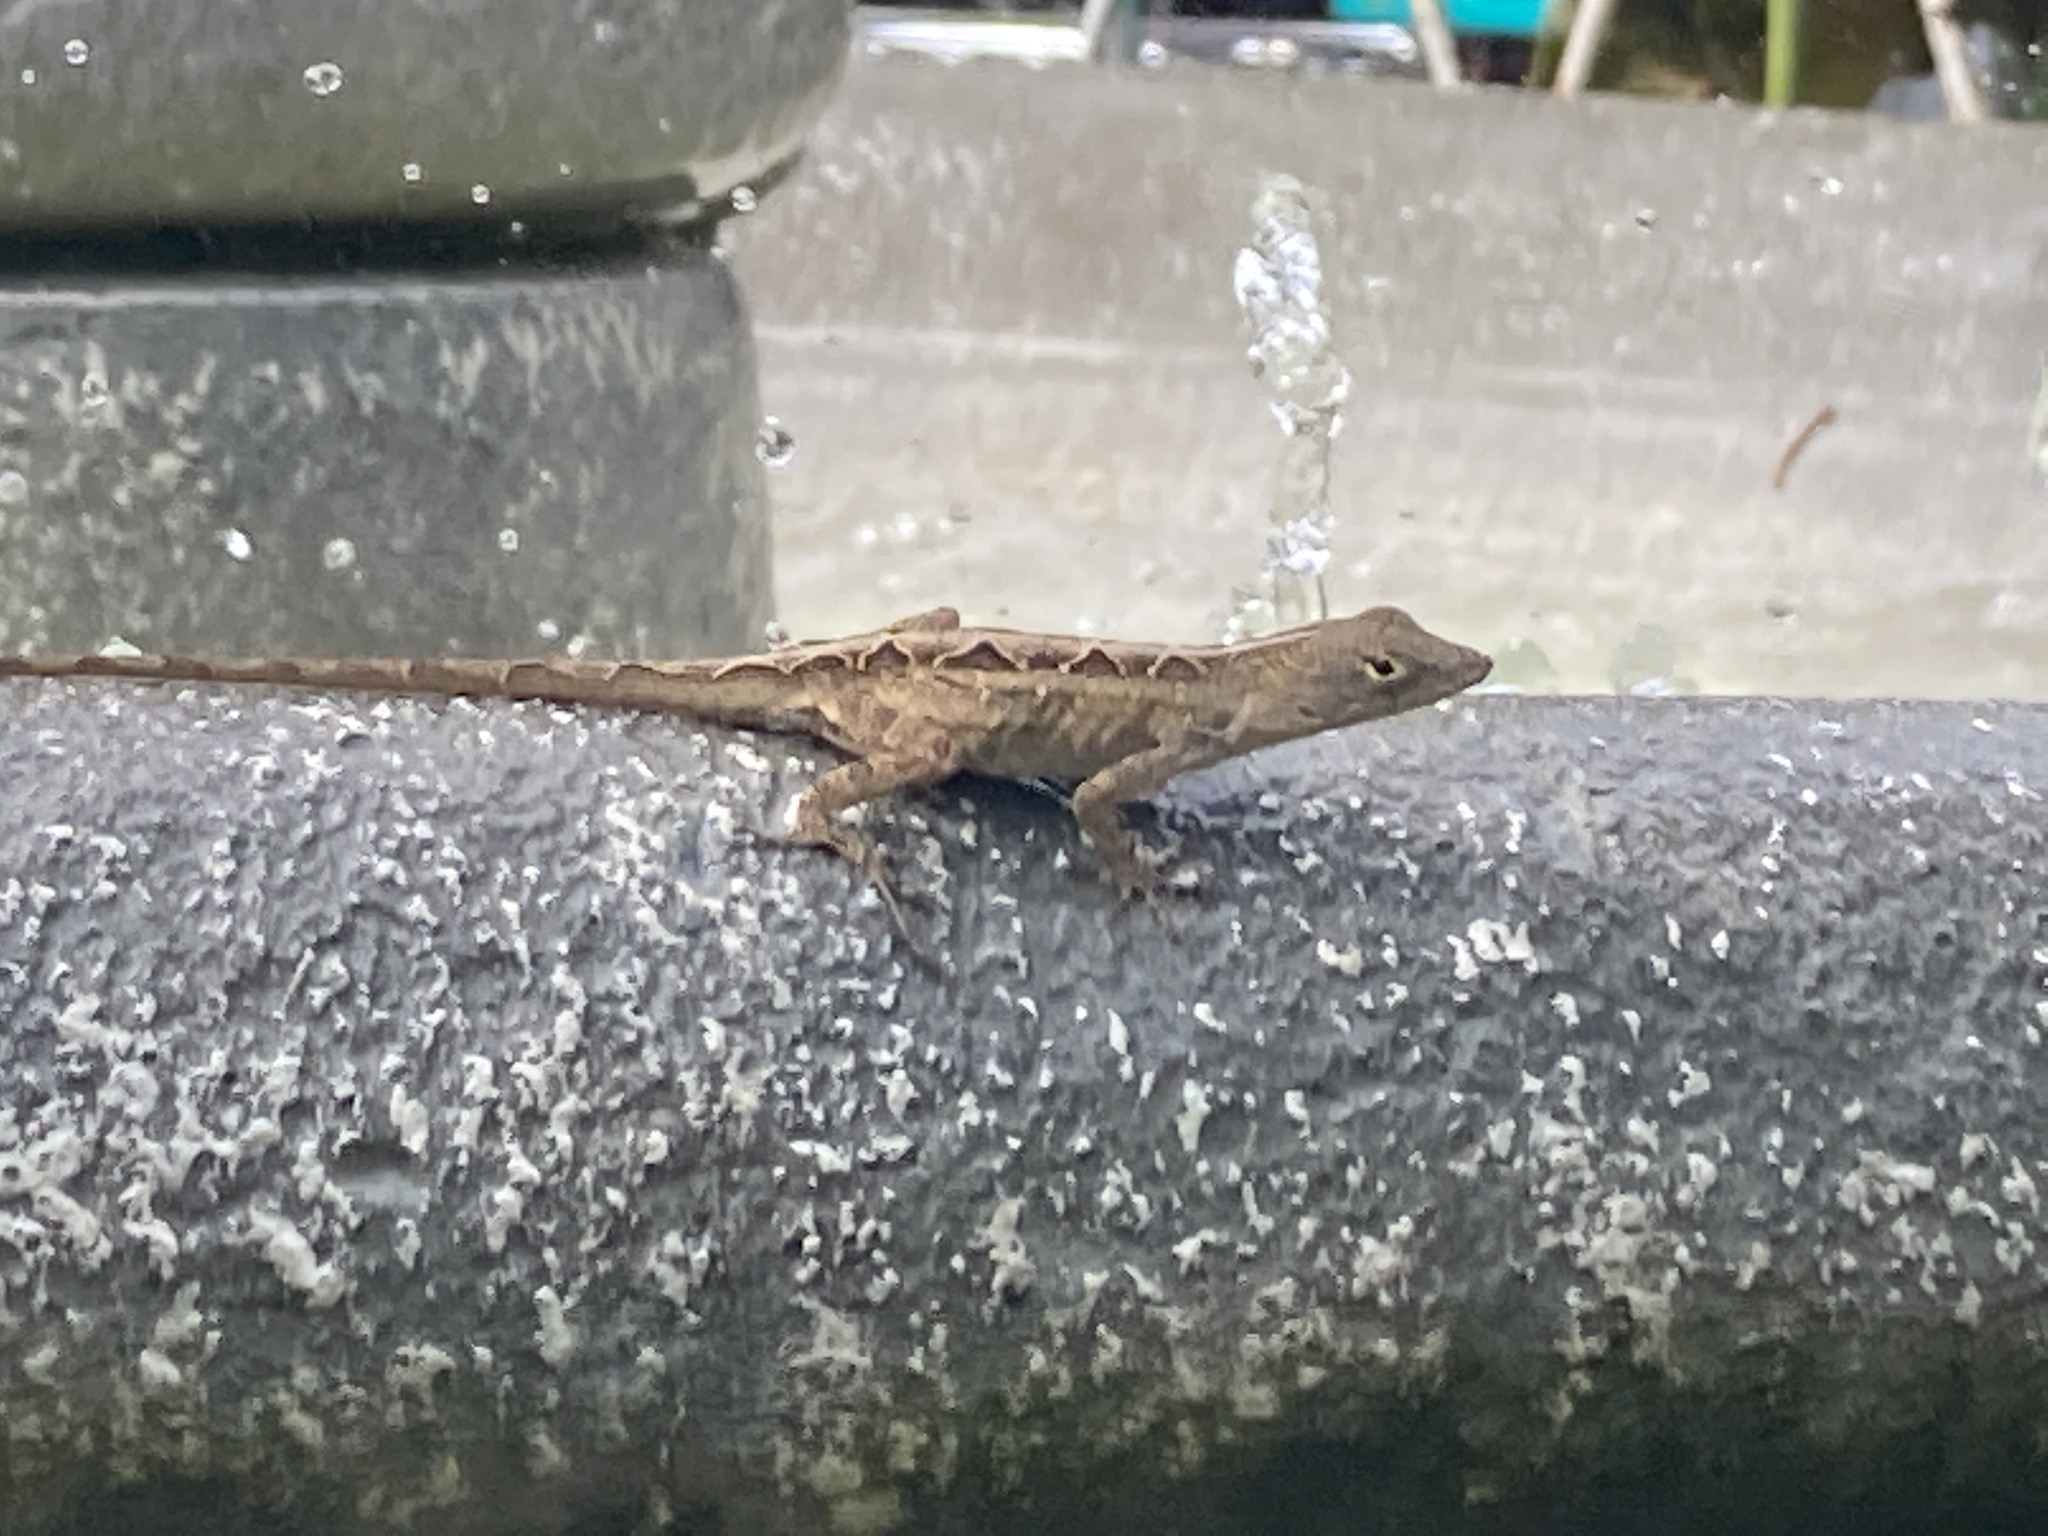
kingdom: Animalia
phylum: Chordata
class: Squamata
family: Dactyloidae
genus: Anolis
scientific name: Anolis sagrei
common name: Brown anole
